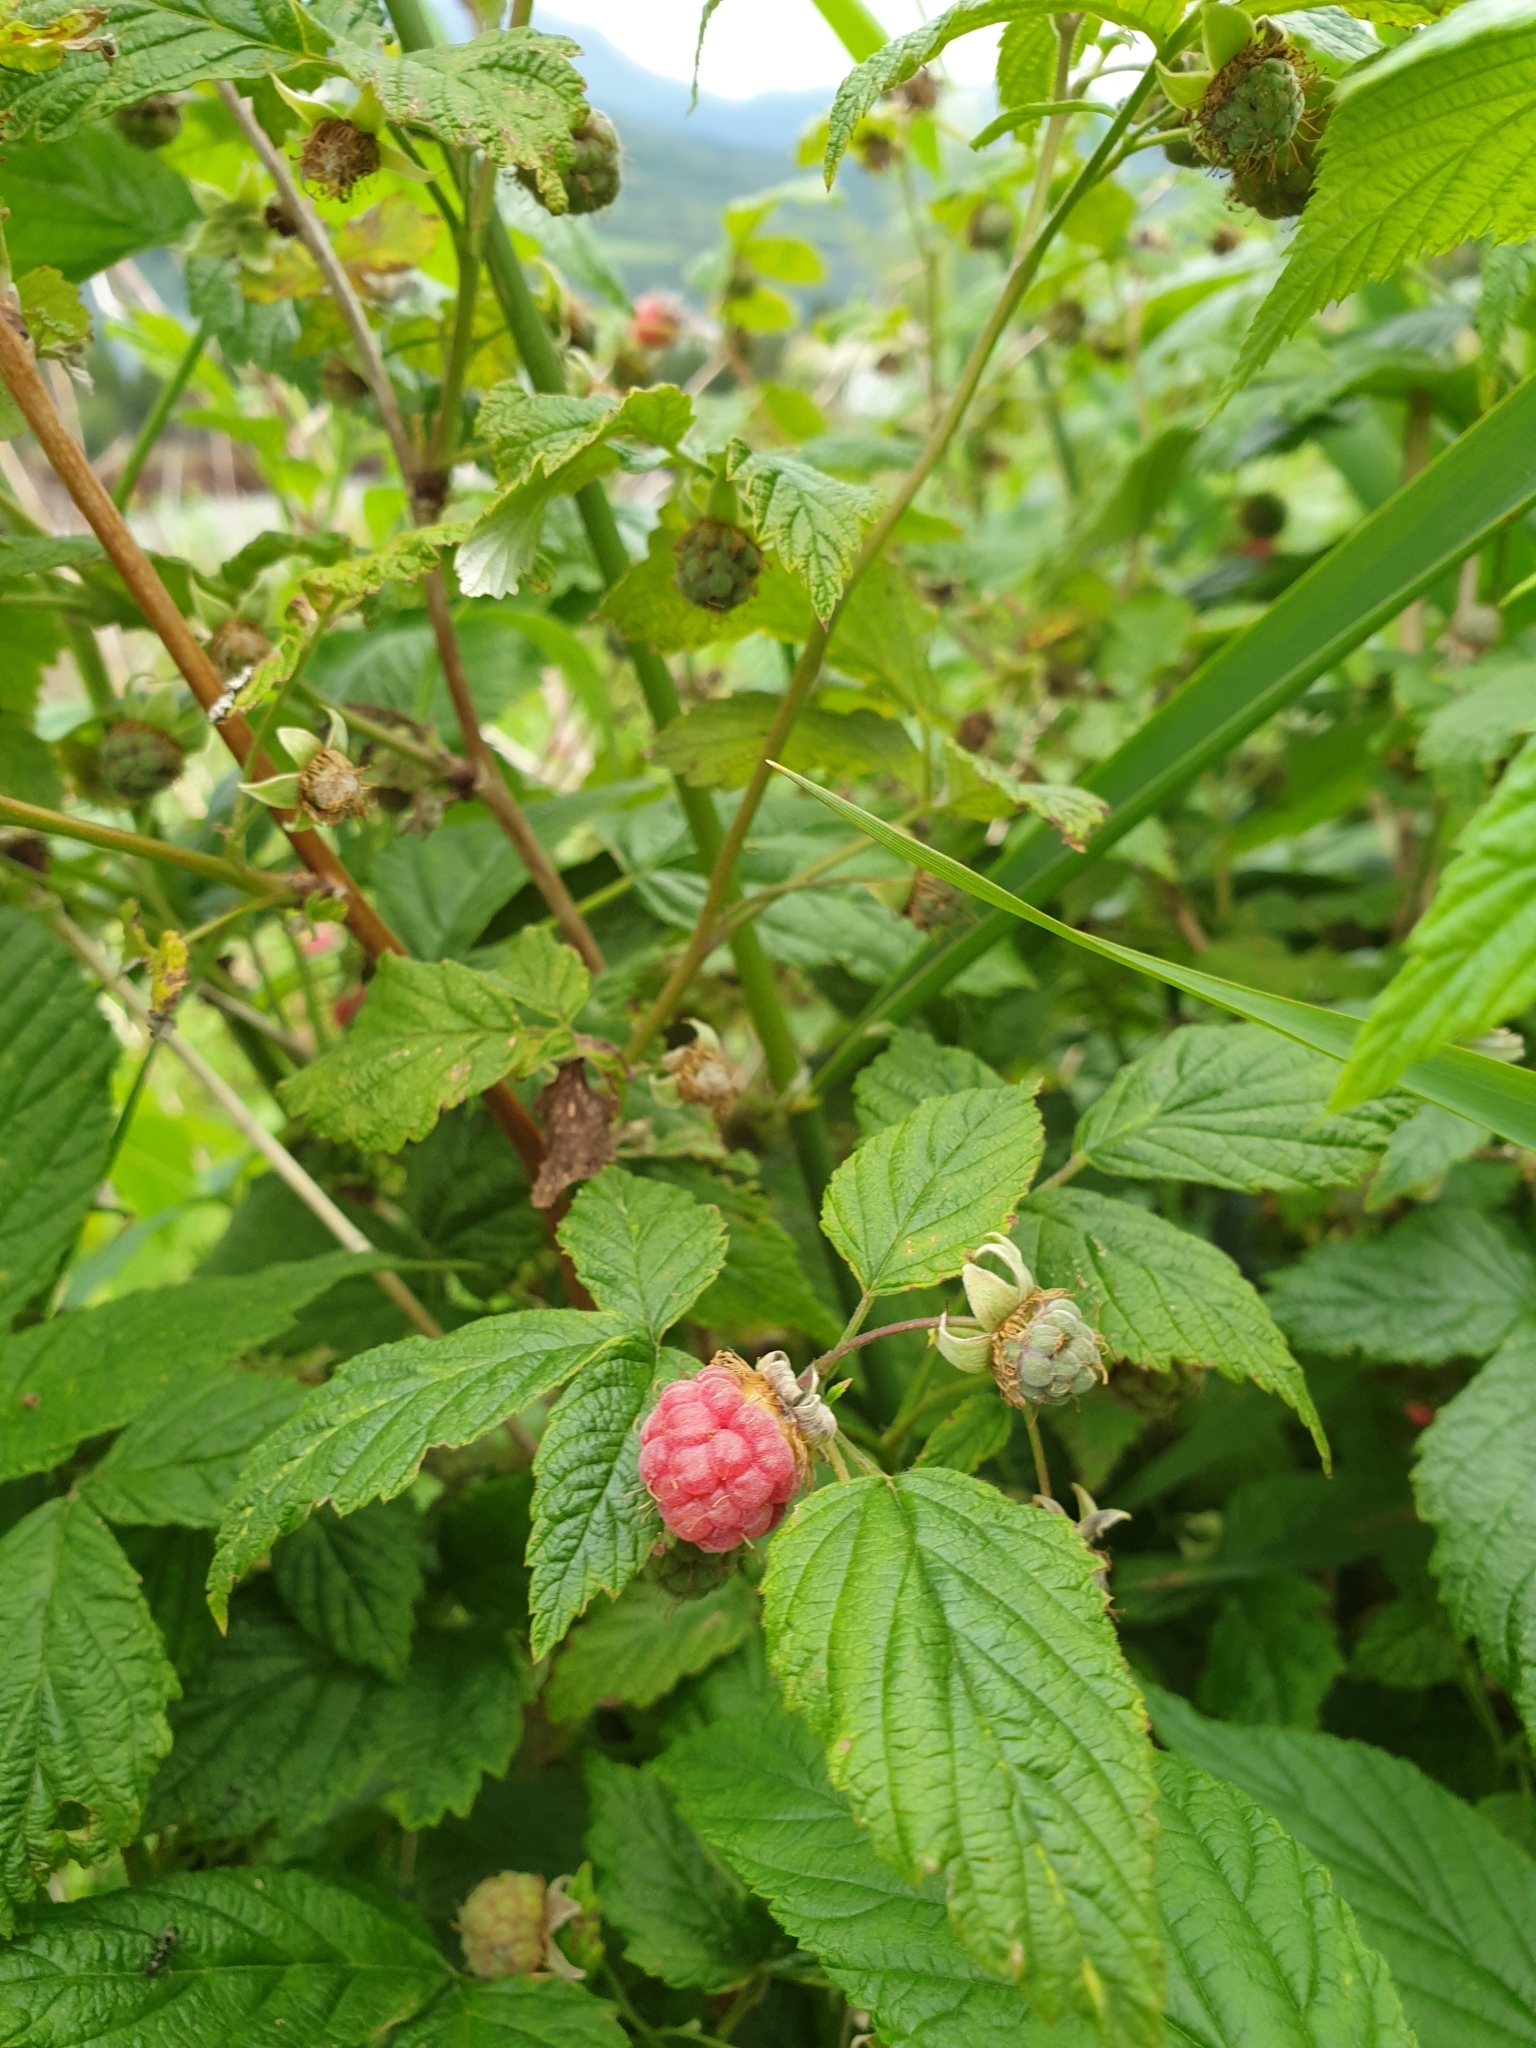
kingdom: Plantae
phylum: Tracheophyta
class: Magnoliopsida
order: Rosales
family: Rosaceae
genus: Rubus
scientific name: Rubus idaeus
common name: Raspberry
